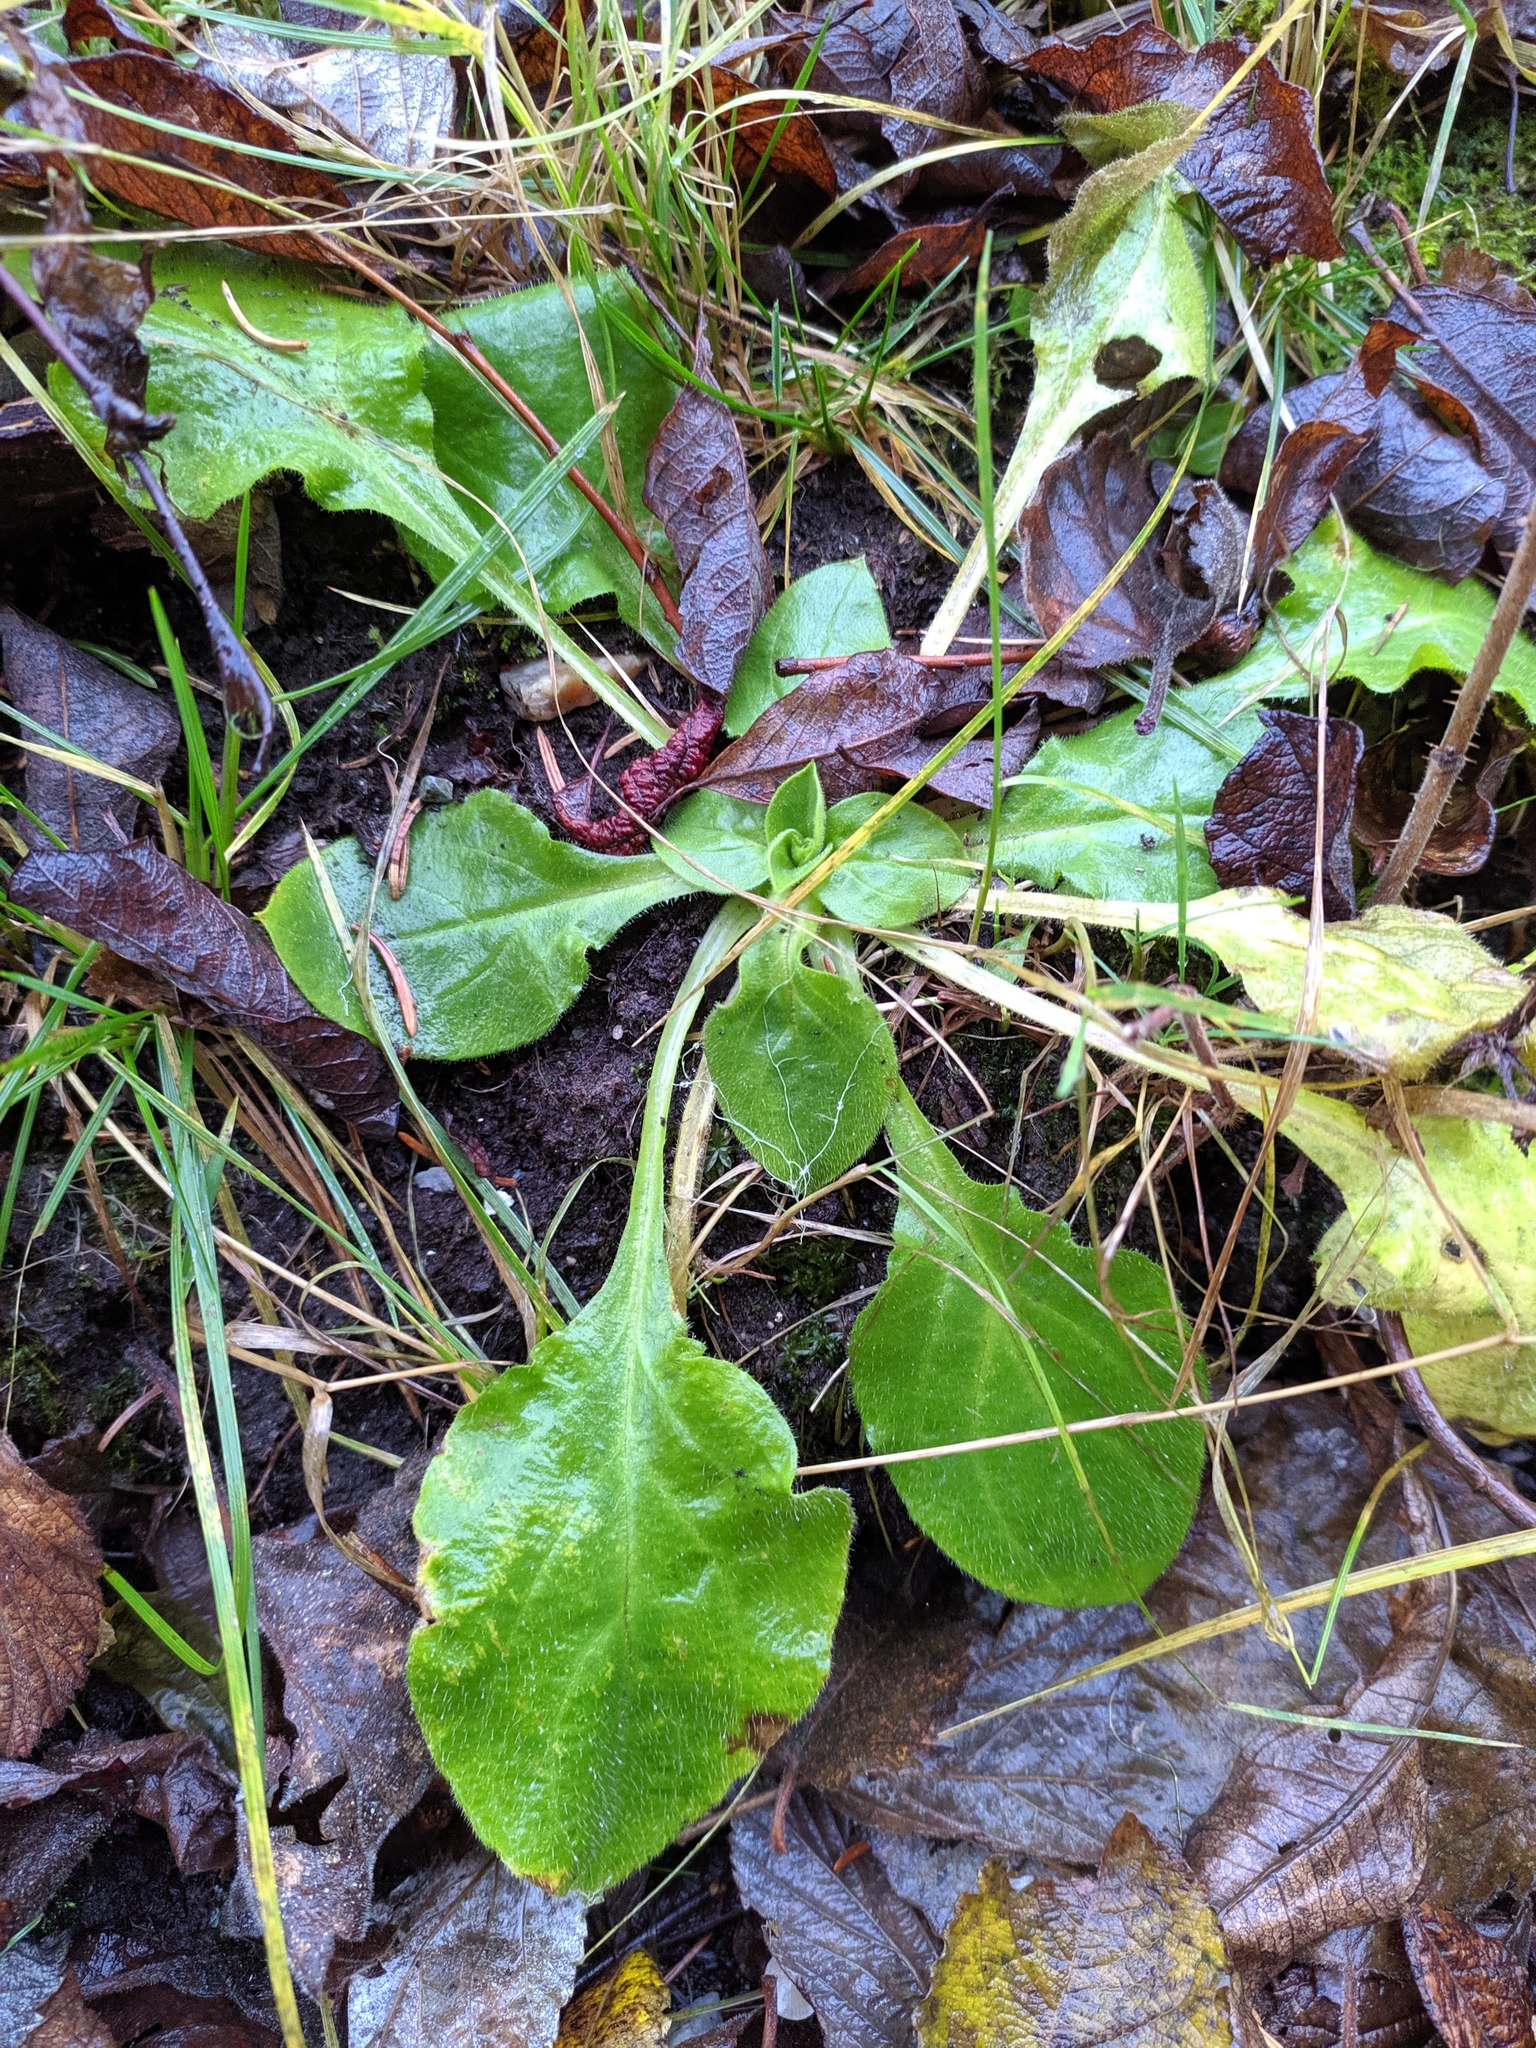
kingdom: Plantae
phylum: Tracheophyta
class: Magnoliopsida
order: Asterales
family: Asteraceae
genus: Bellis
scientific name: Bellis perennis
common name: Lawndaisy
